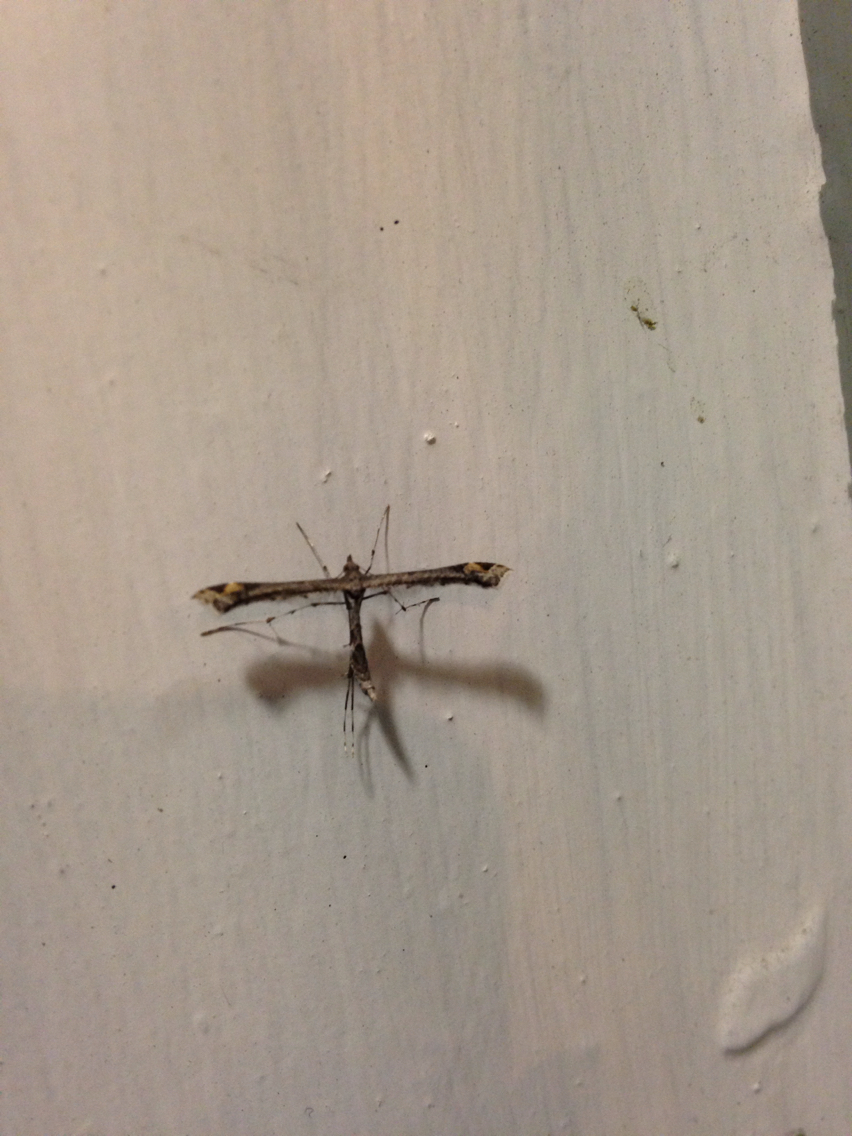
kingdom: Animalia
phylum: Arthropoda
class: Insecta
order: Lepidoptera
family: Pterophoridae
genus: Anstenoptilia
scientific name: Anstenoptilia marmarodactyla
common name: Moth
